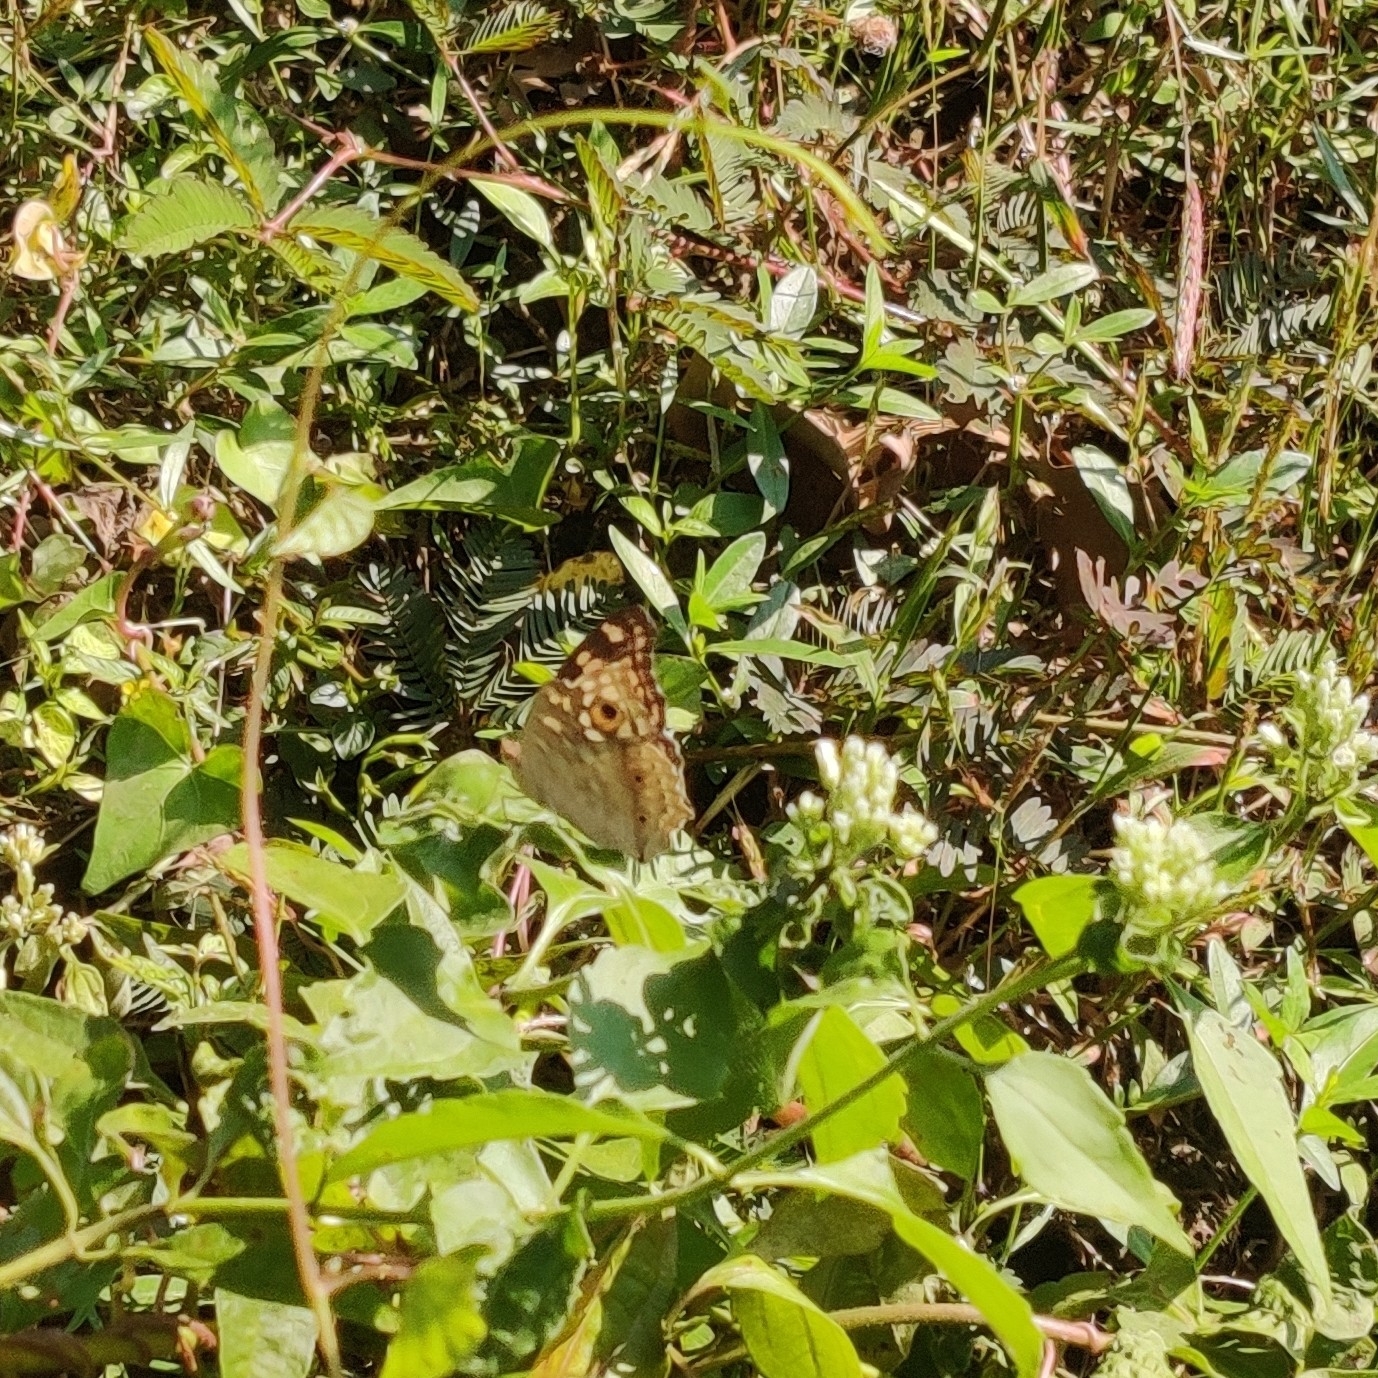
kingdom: Animalia
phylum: Arthropoda
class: Insecta
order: Lepidoptera
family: Nymphalidae
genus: Junonia
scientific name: Junonia lemonias
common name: Lemon pansy
